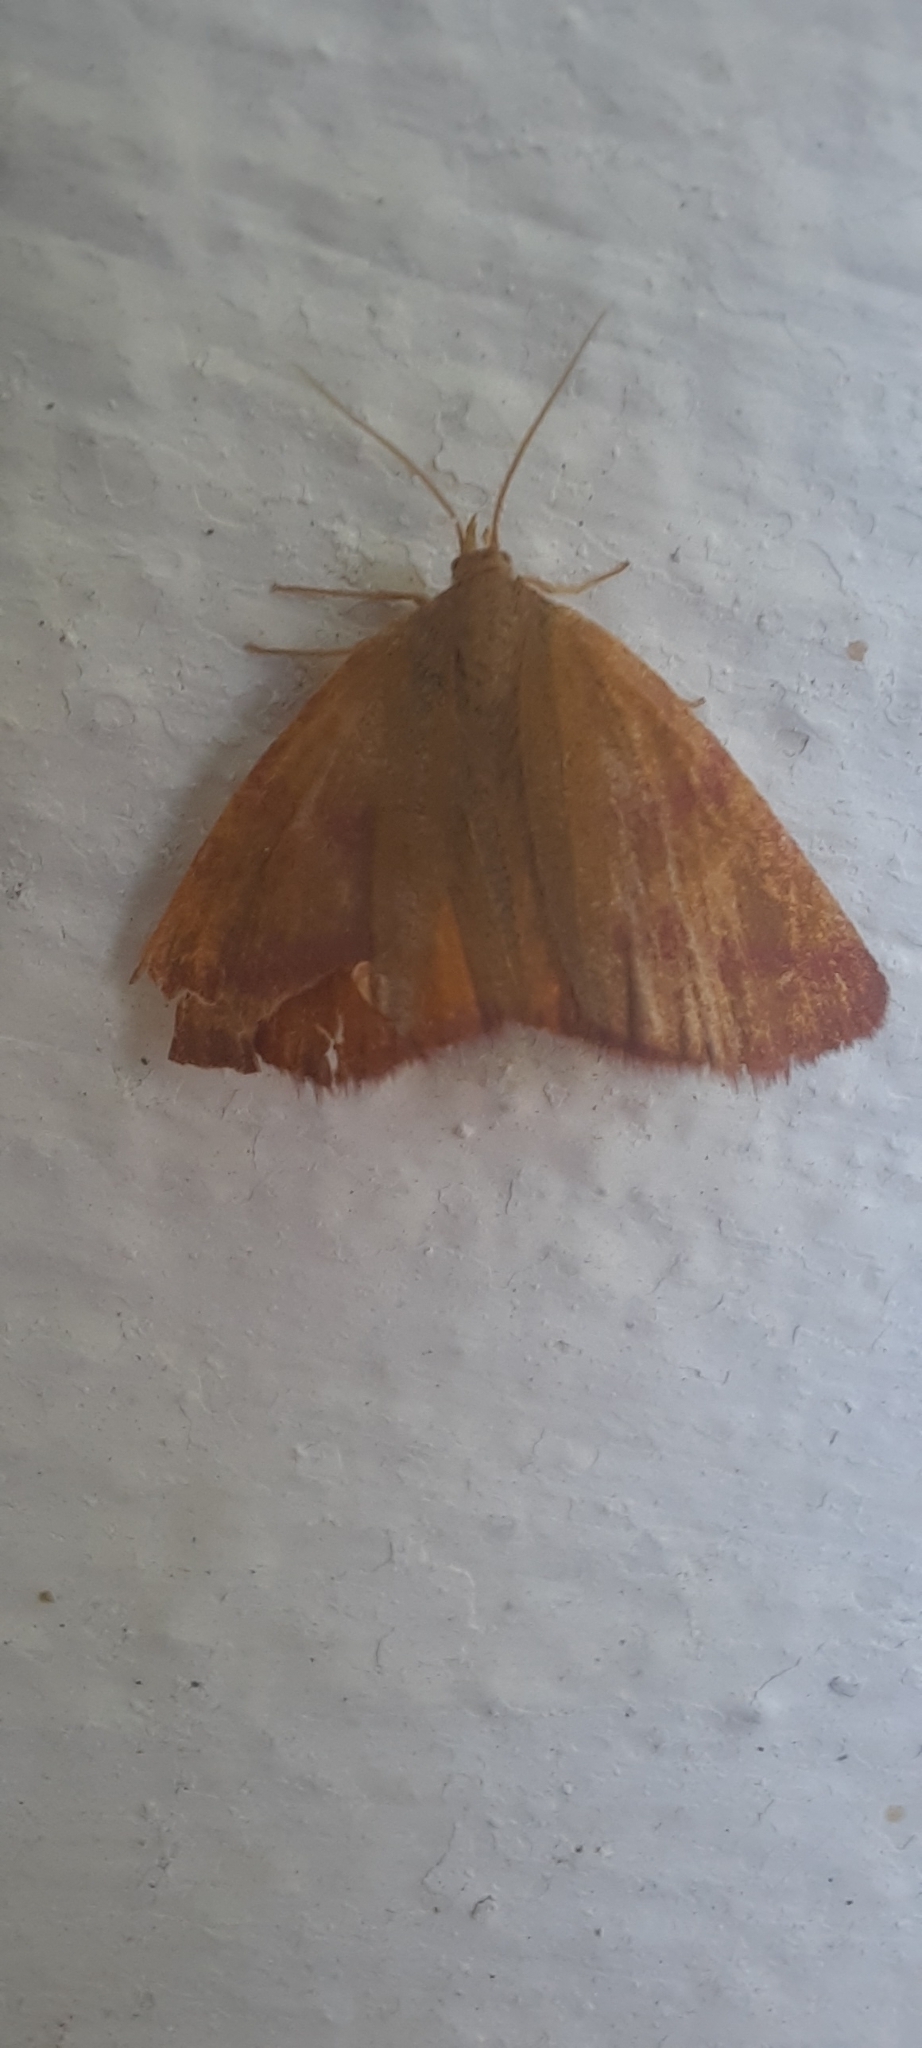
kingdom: Animalia
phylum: Arthropoda
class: Insecta
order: Lepidoptera
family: Geometridae
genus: Lythria
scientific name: Lythria purpuraria
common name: Purple-barred yellow
